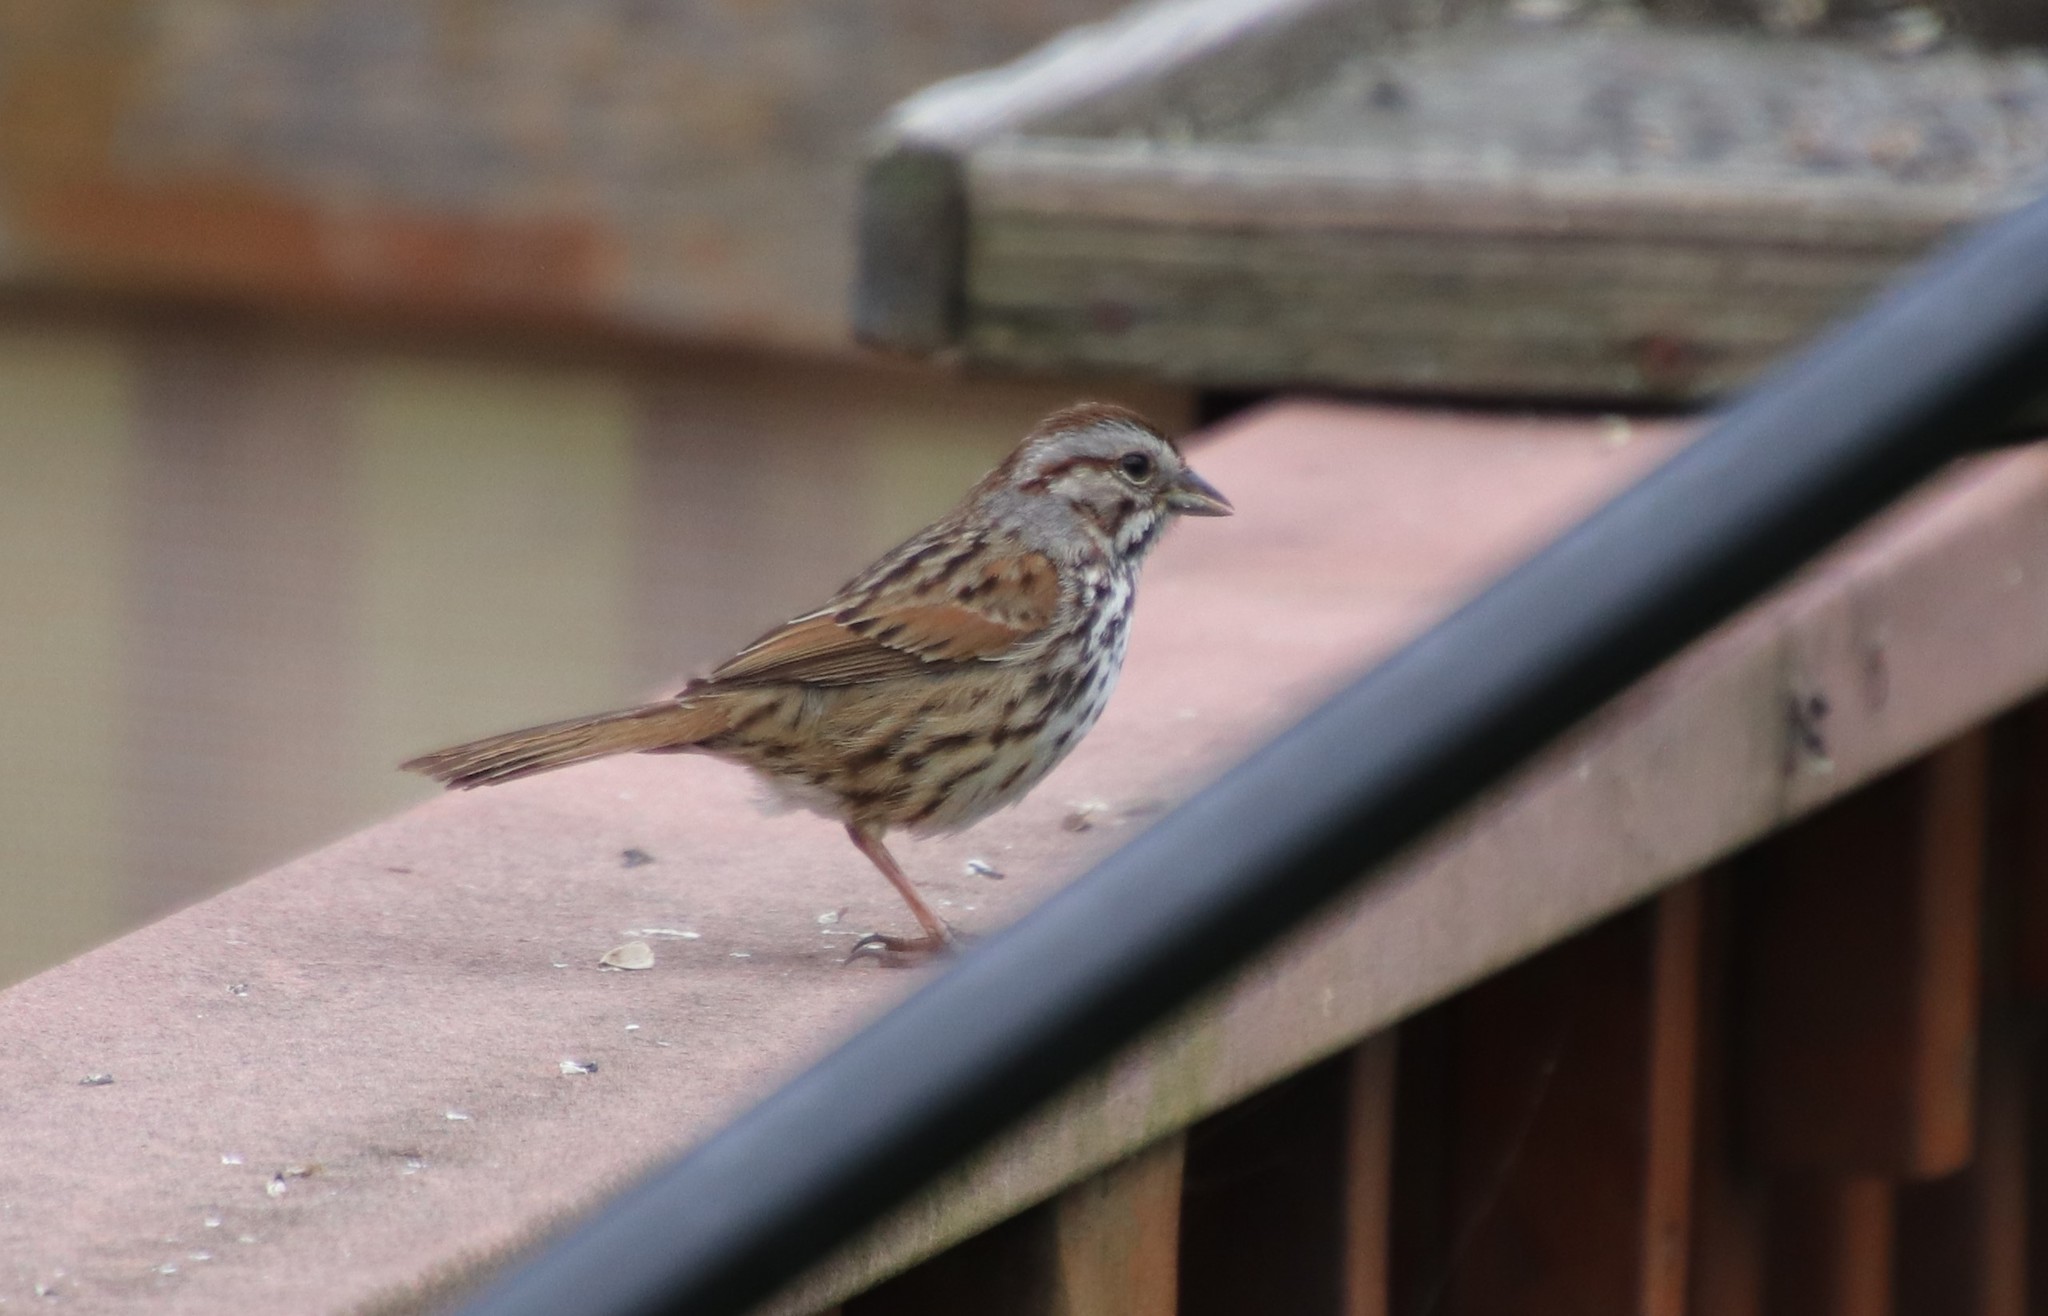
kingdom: Animalia
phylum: Chordata
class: Aves
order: Passeriformes
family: Passerellidae
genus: Melospiza
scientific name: Melospiza melodia
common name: Song sparrow
